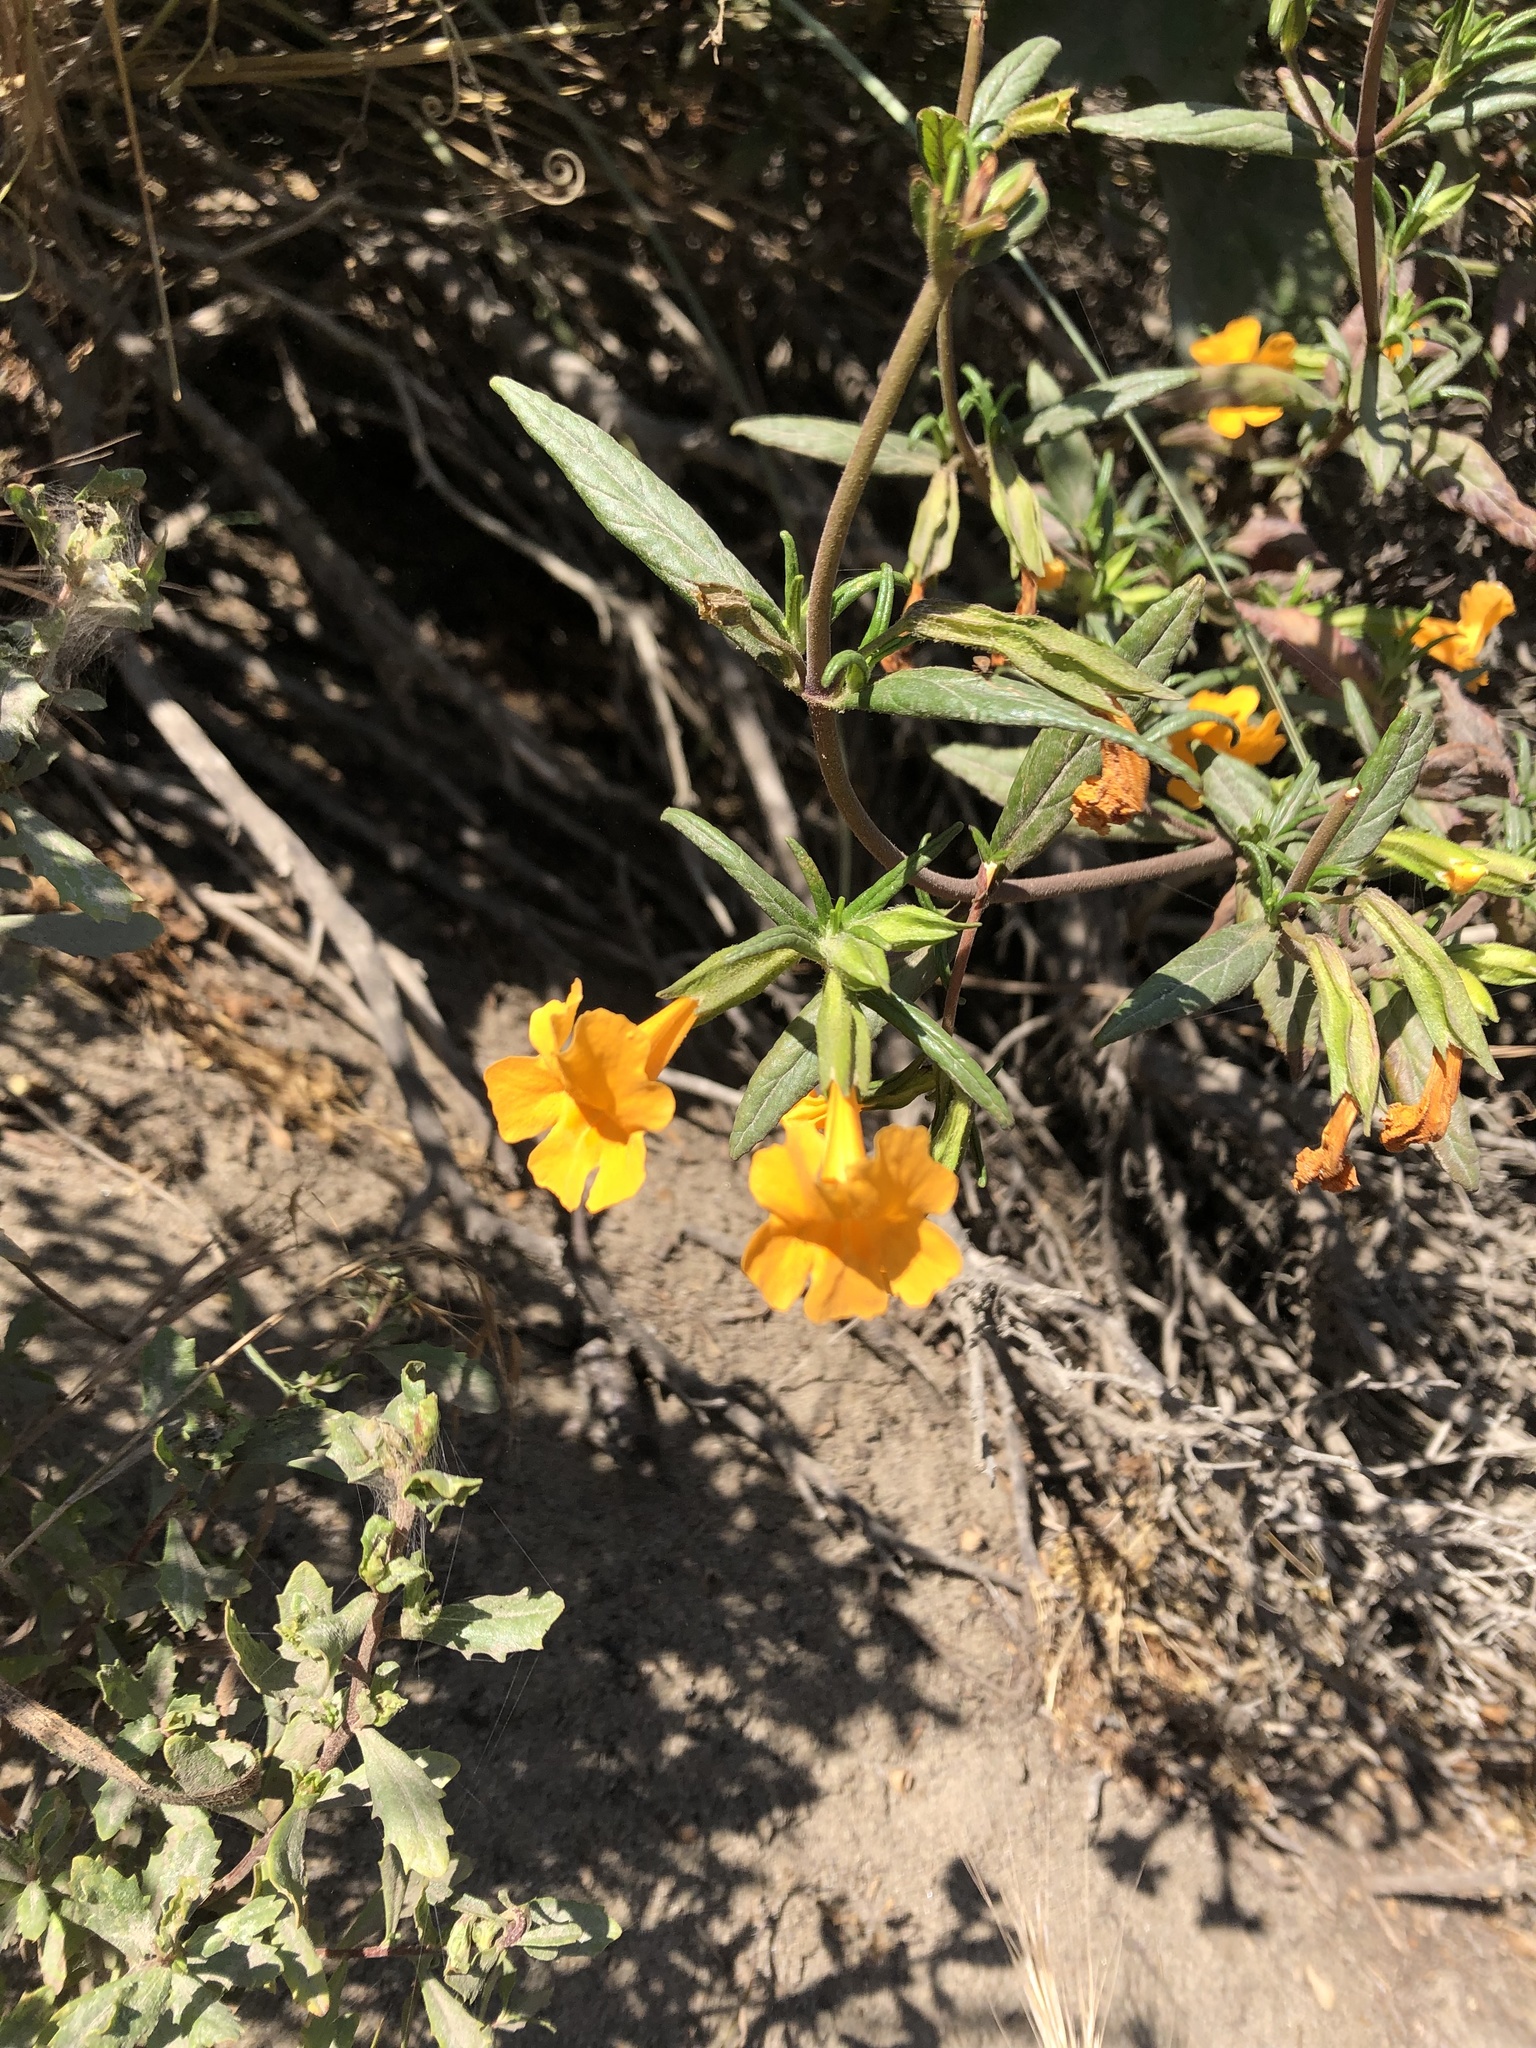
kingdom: Plantae
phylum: Tracheophyta
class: Magnoliopsida
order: Lamiales
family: Phrymaceae
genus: Diplacus
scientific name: Diplacus aurantiacus
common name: Bush monkey-flower
